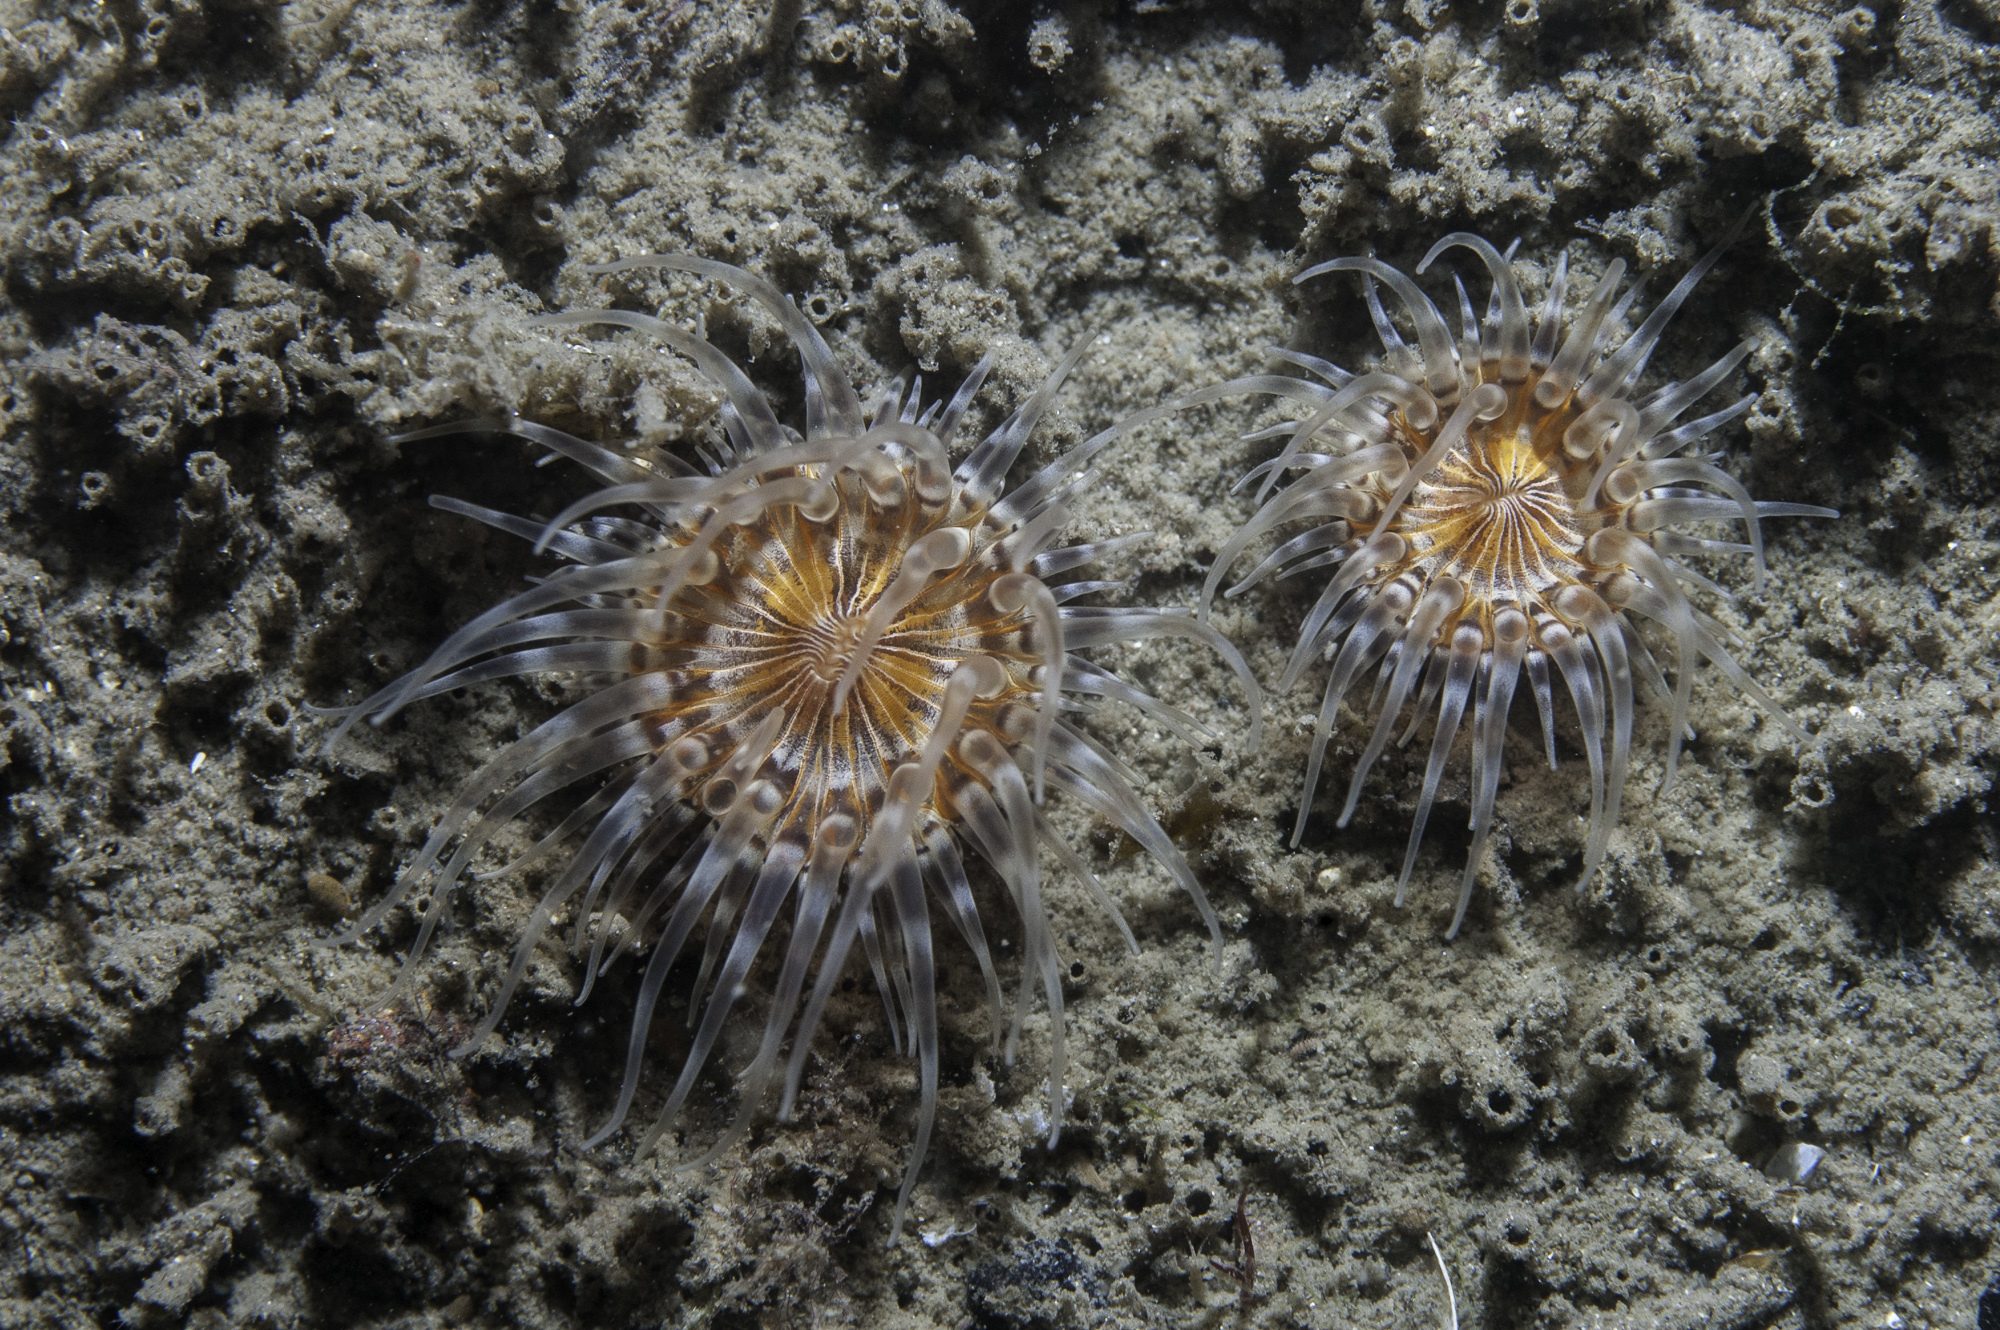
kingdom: Animalia
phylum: Cnidaria
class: Anthozoa
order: Actiniaria
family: Sagartiidae
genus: Sagartia
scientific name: Sagartia lacerata
